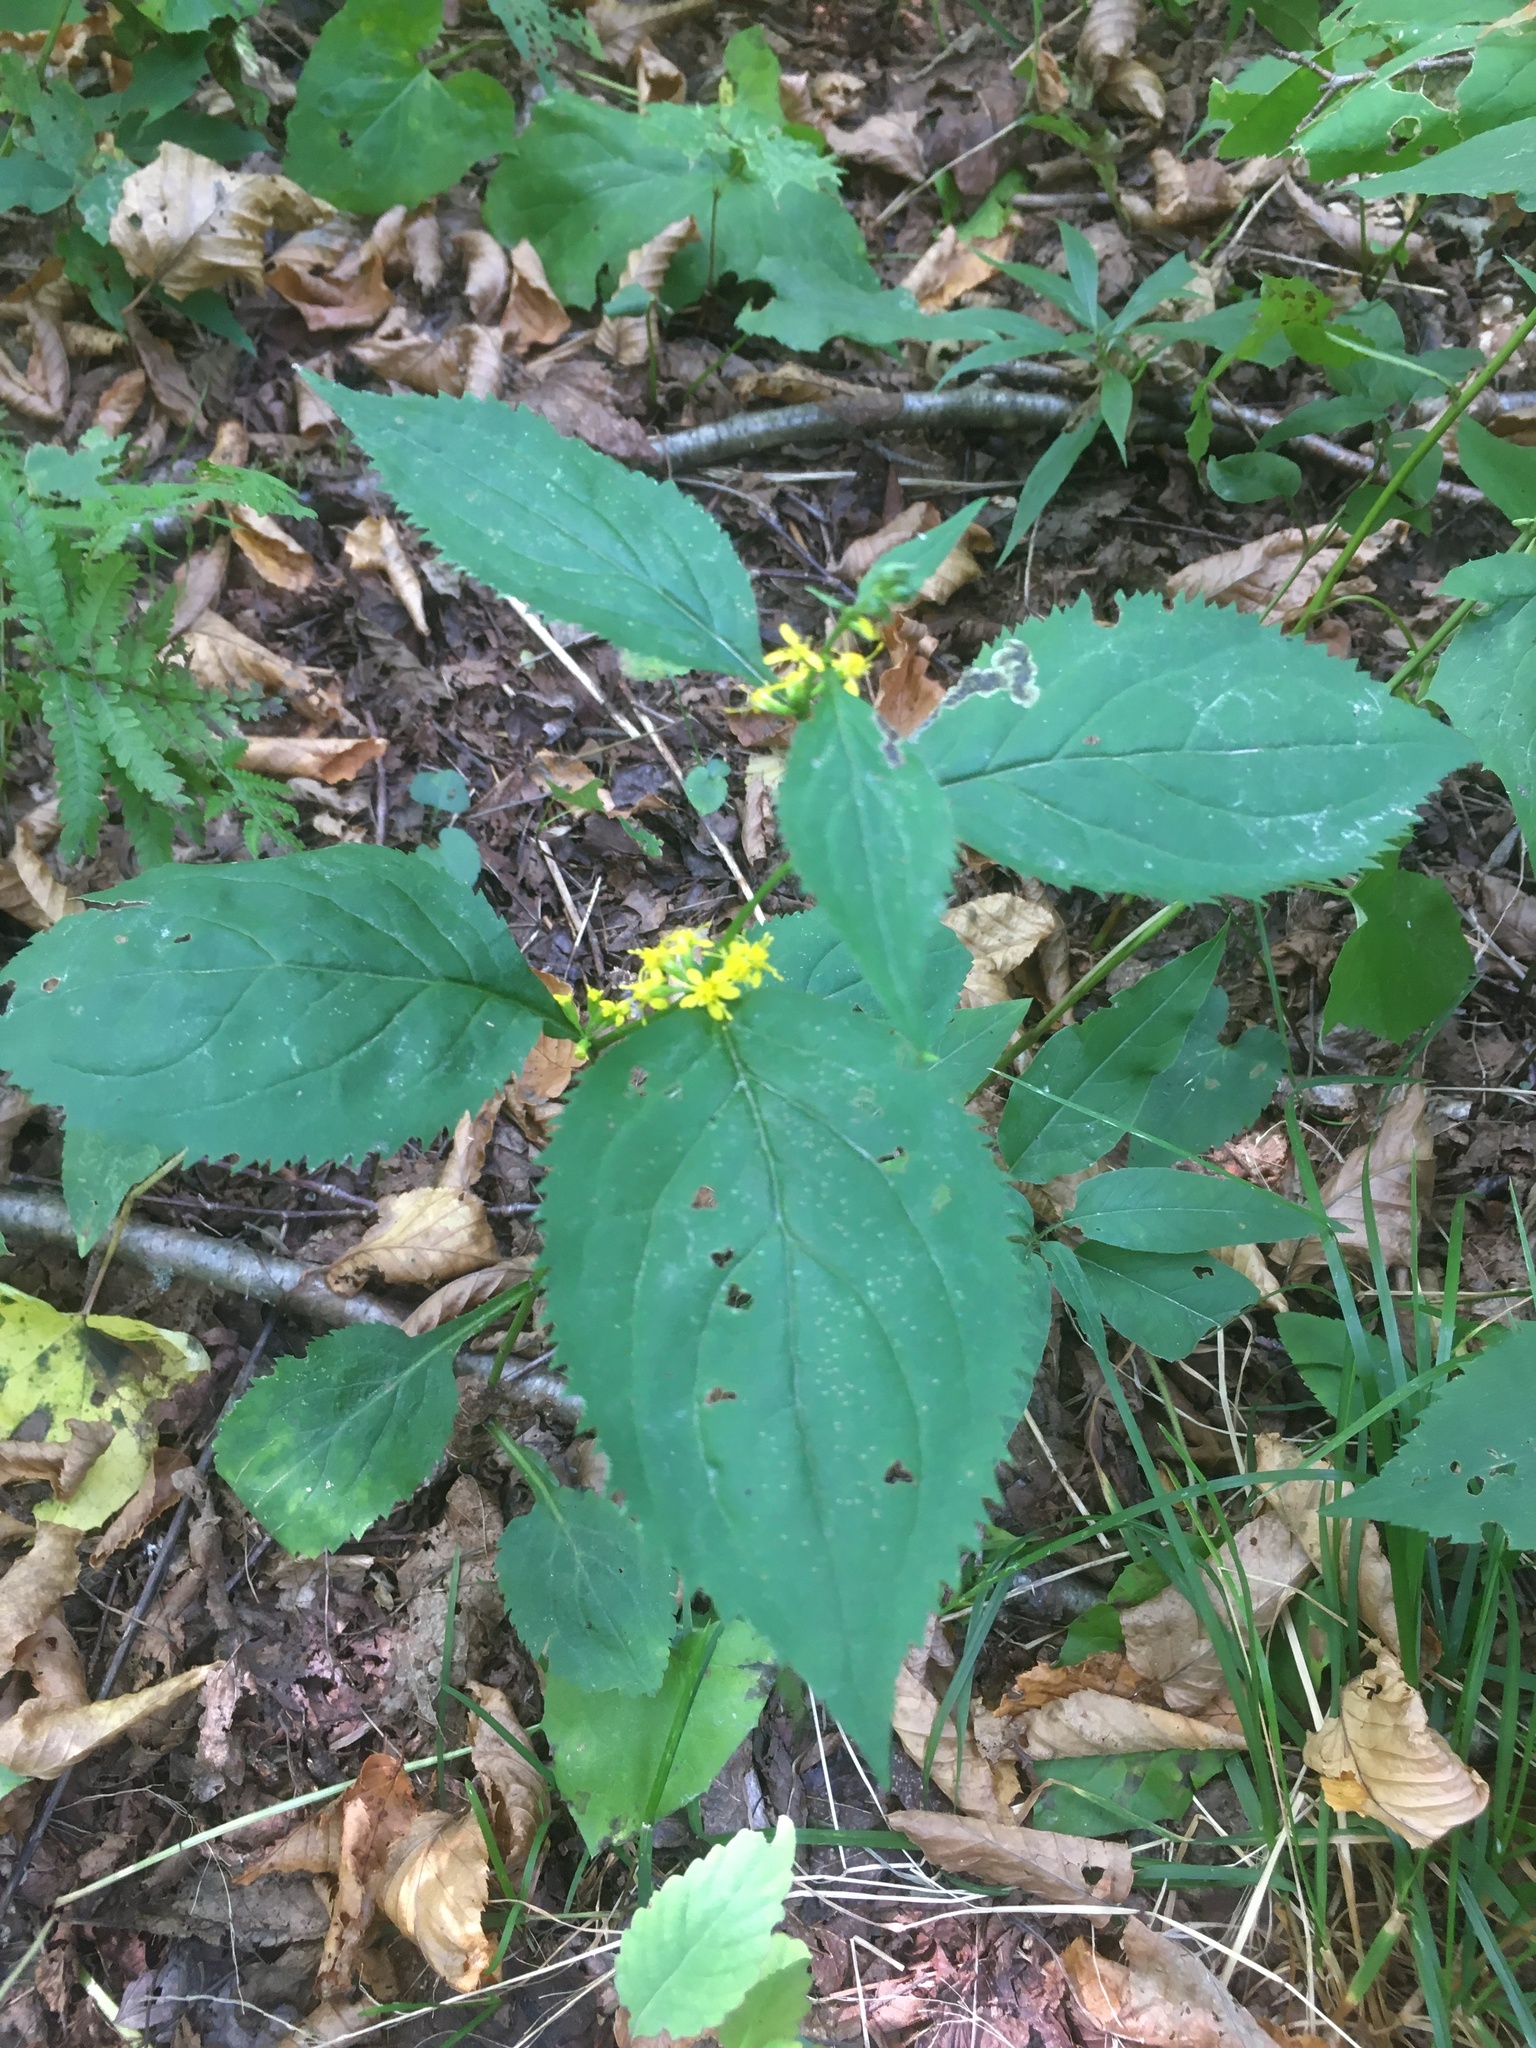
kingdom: Plantae
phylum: Tracheophyta
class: Magnoliopsida
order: Asterales
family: Asteraceae
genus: Solidago
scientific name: Solidago flexicaulis
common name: Zig-zag goldenrod
